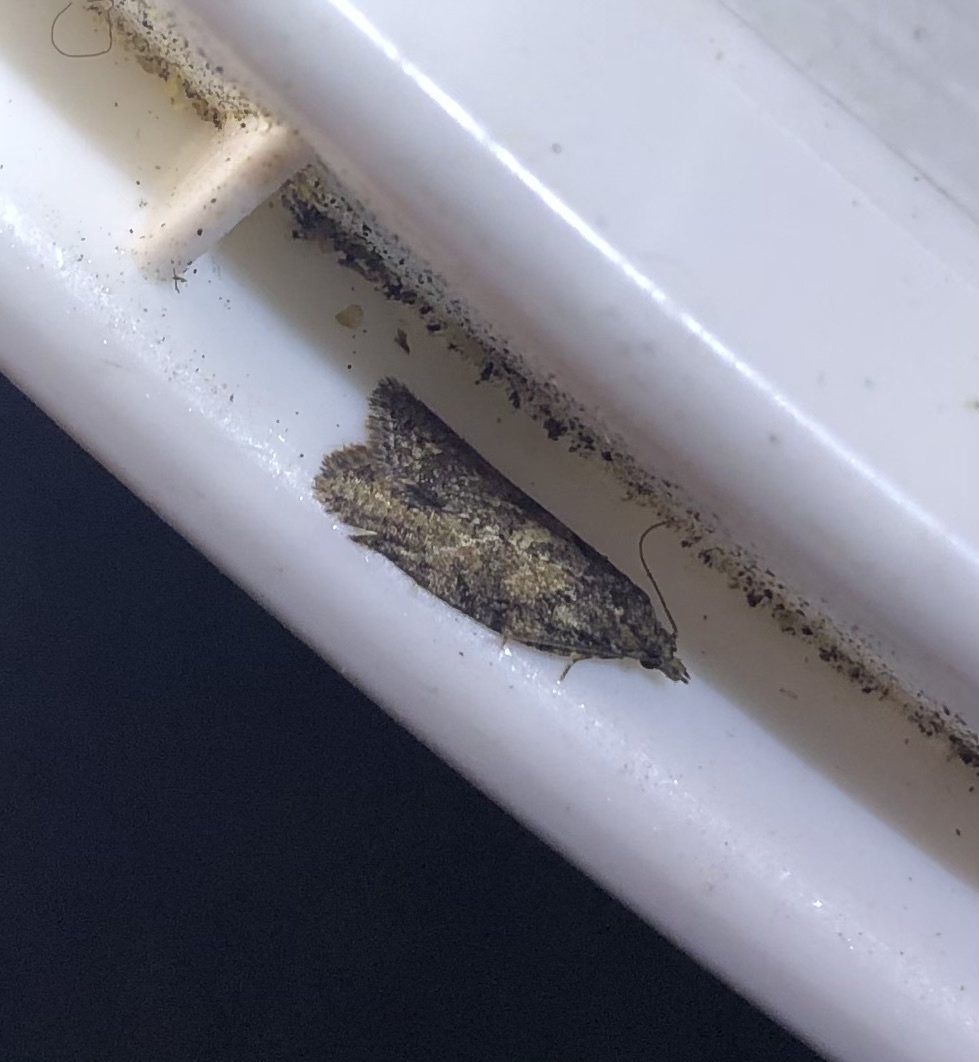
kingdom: Animalia
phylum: Arthropoda
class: Insecta
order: Lepidoptera
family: Tortricidae
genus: Capua
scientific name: Capua intractana
